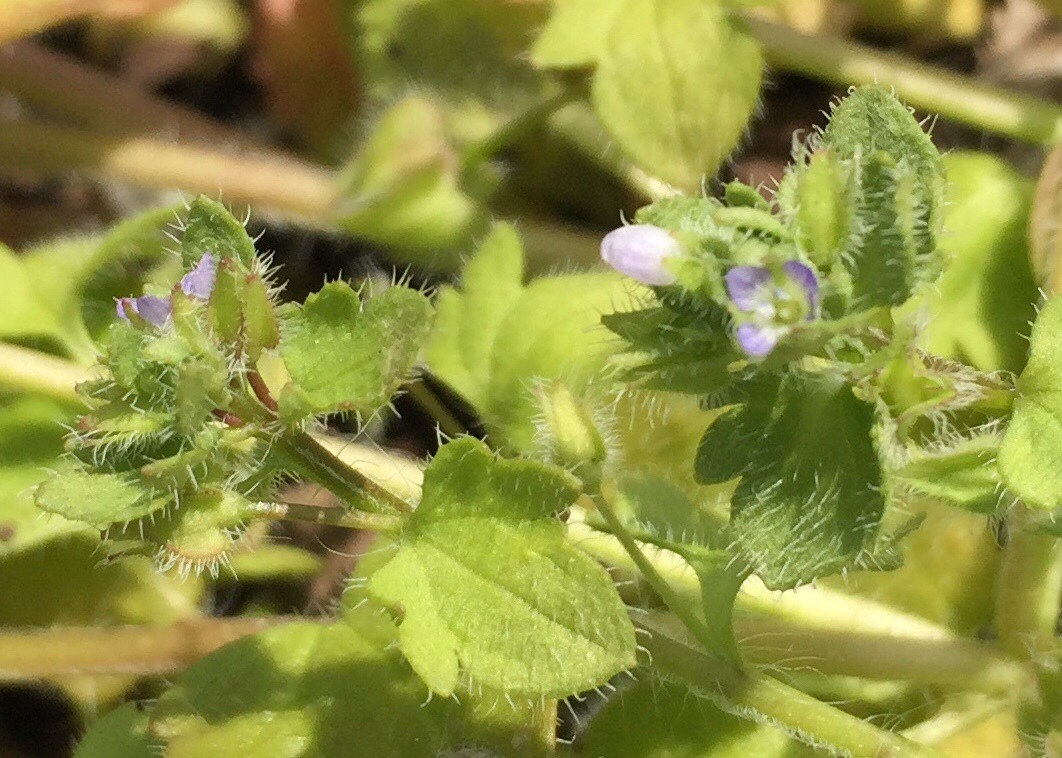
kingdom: Plantae
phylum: Tracheophyta
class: Magnoliopsida
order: Lamiales
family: Plantaginaceae
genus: Veronica
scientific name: Veronica hederifolia
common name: Ivy-leaved speedwell
